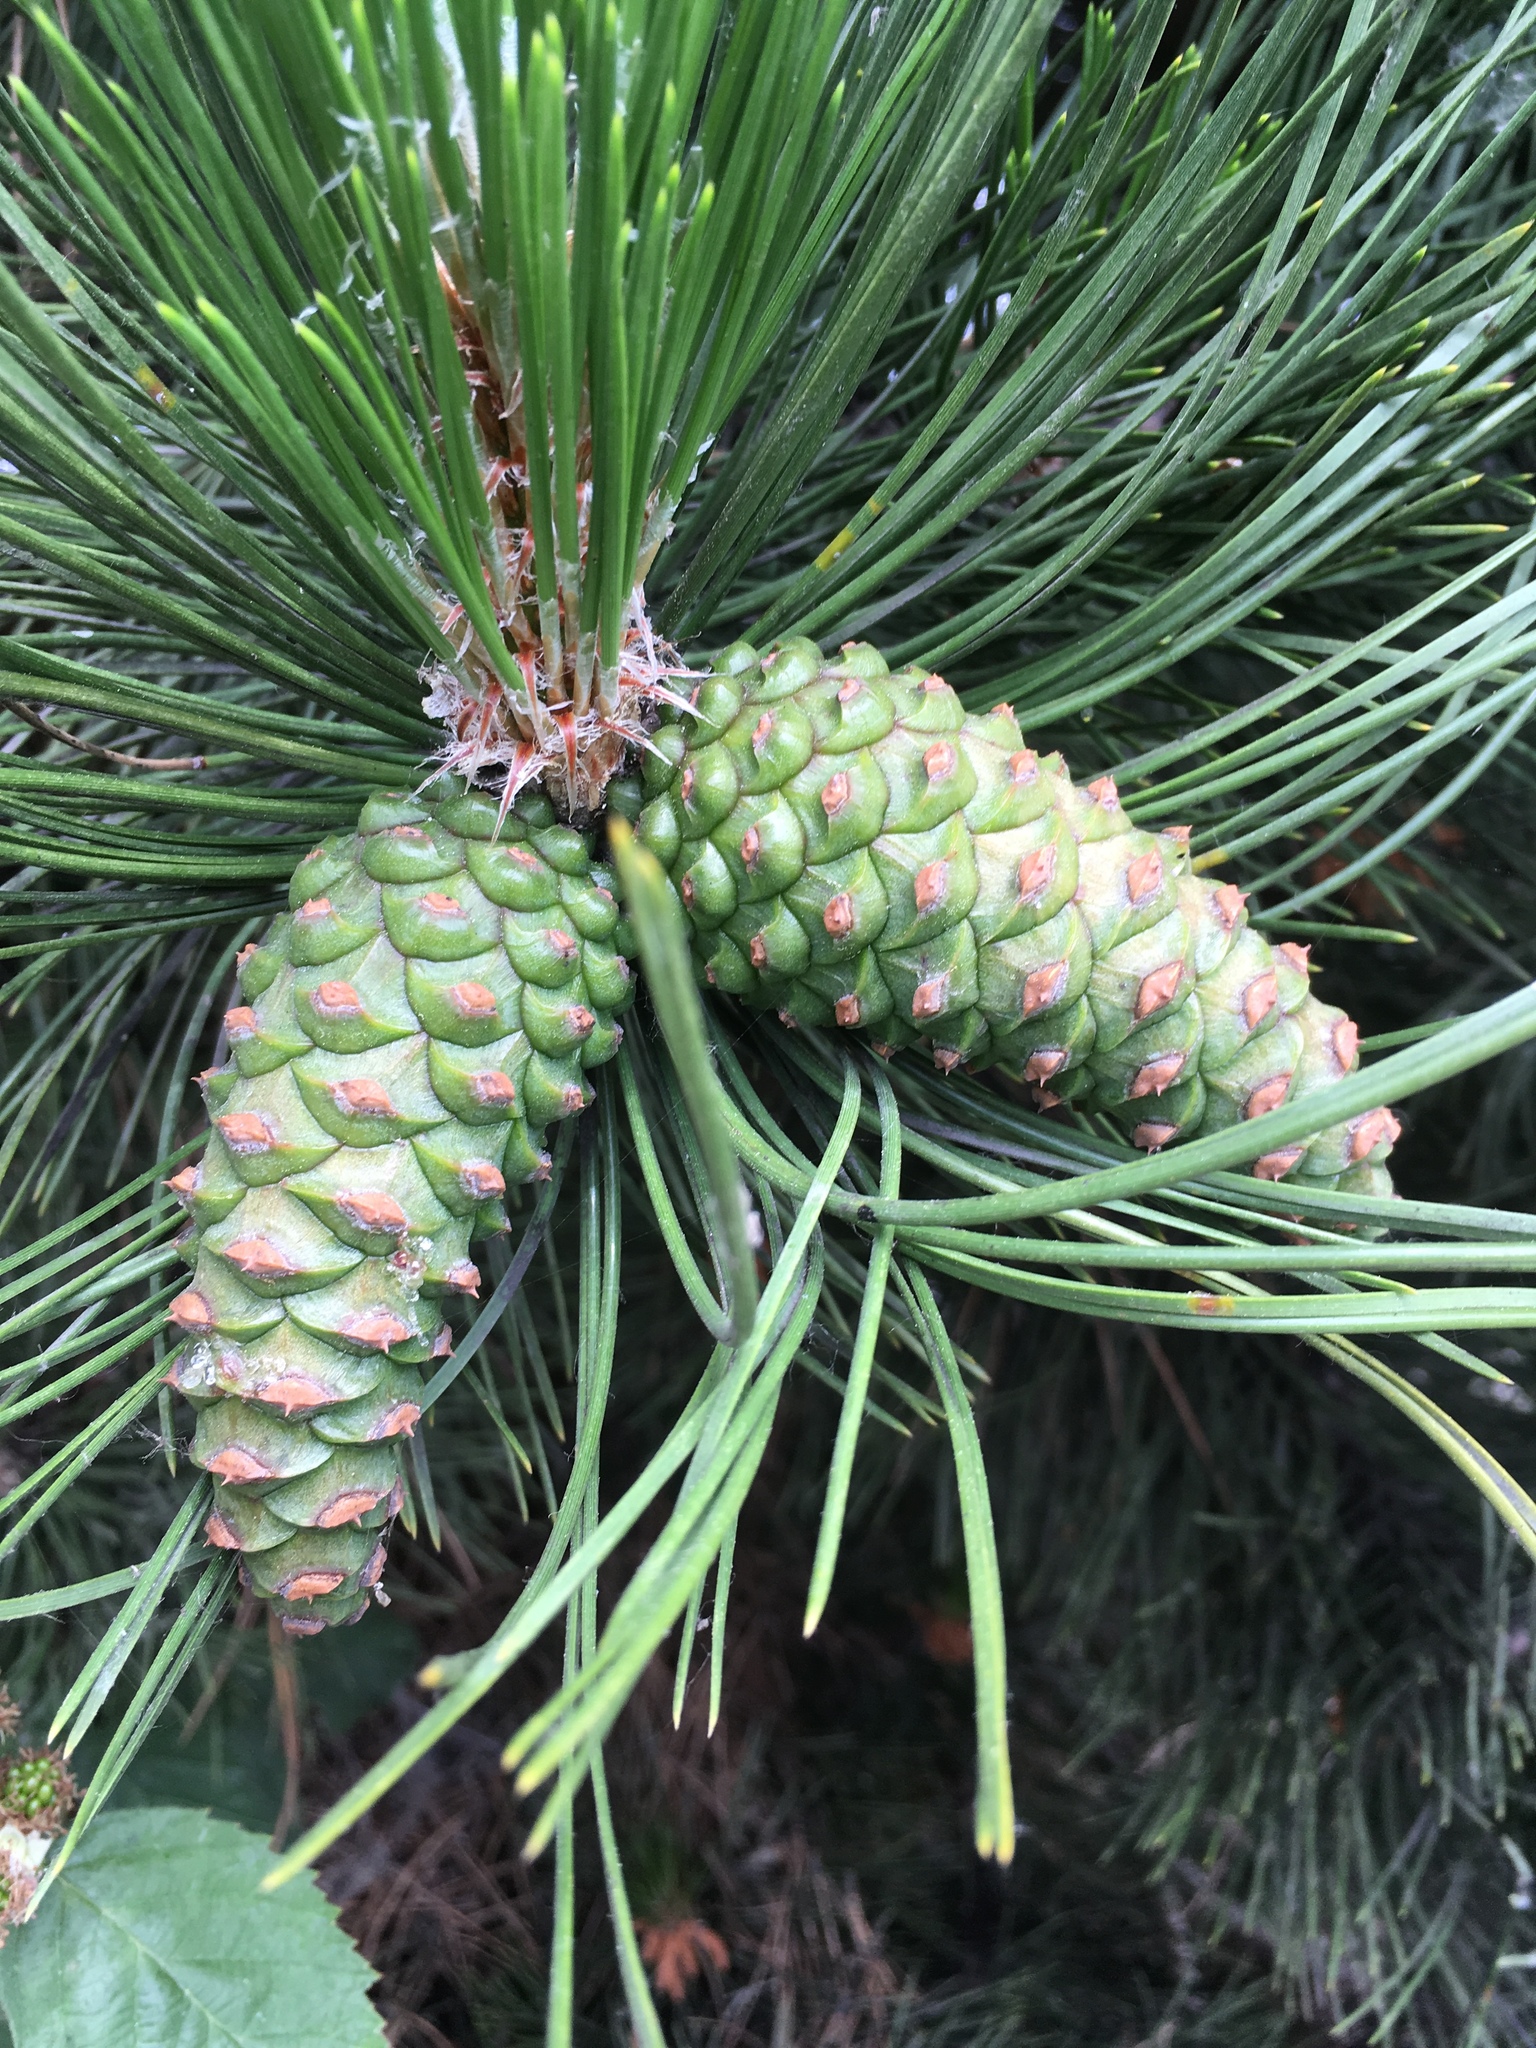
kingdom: Plantae
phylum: Tracheophyta
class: Pinopsida
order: Pinales
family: Pinaceae
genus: Pinus
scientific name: Pinus contorta
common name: Lodgepole pine
